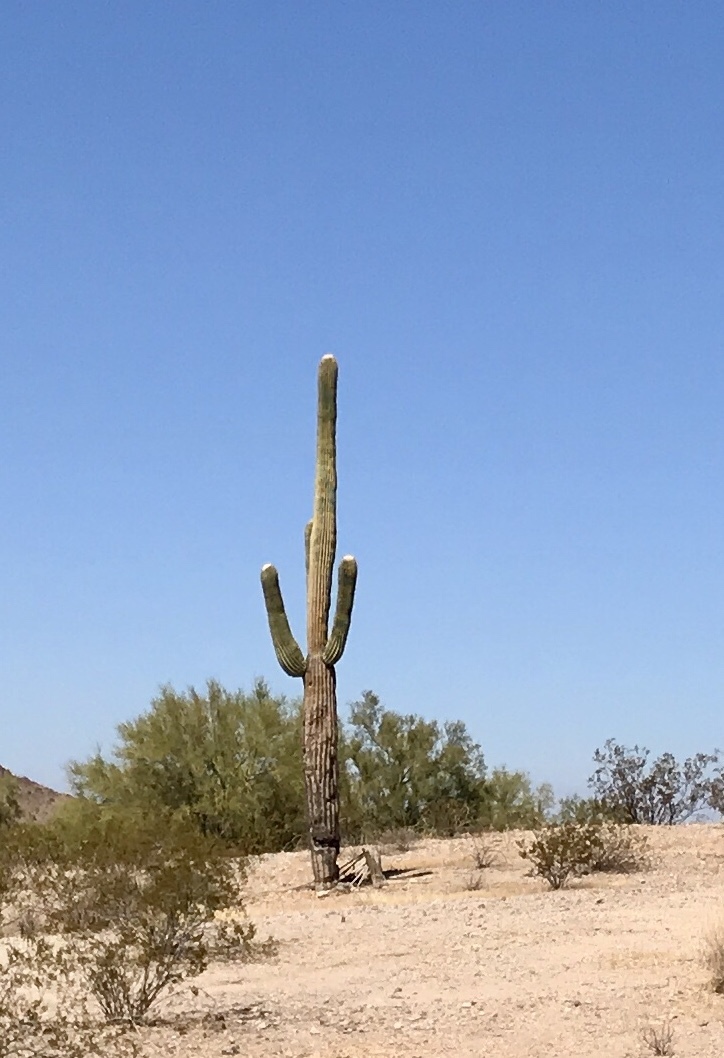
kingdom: Plantae
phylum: Tracheophyta
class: Magnoliopsida
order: Caryophyllales
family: Cactaceae
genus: Carnegiea
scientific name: Carnegiea gigantea
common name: Saguaro
